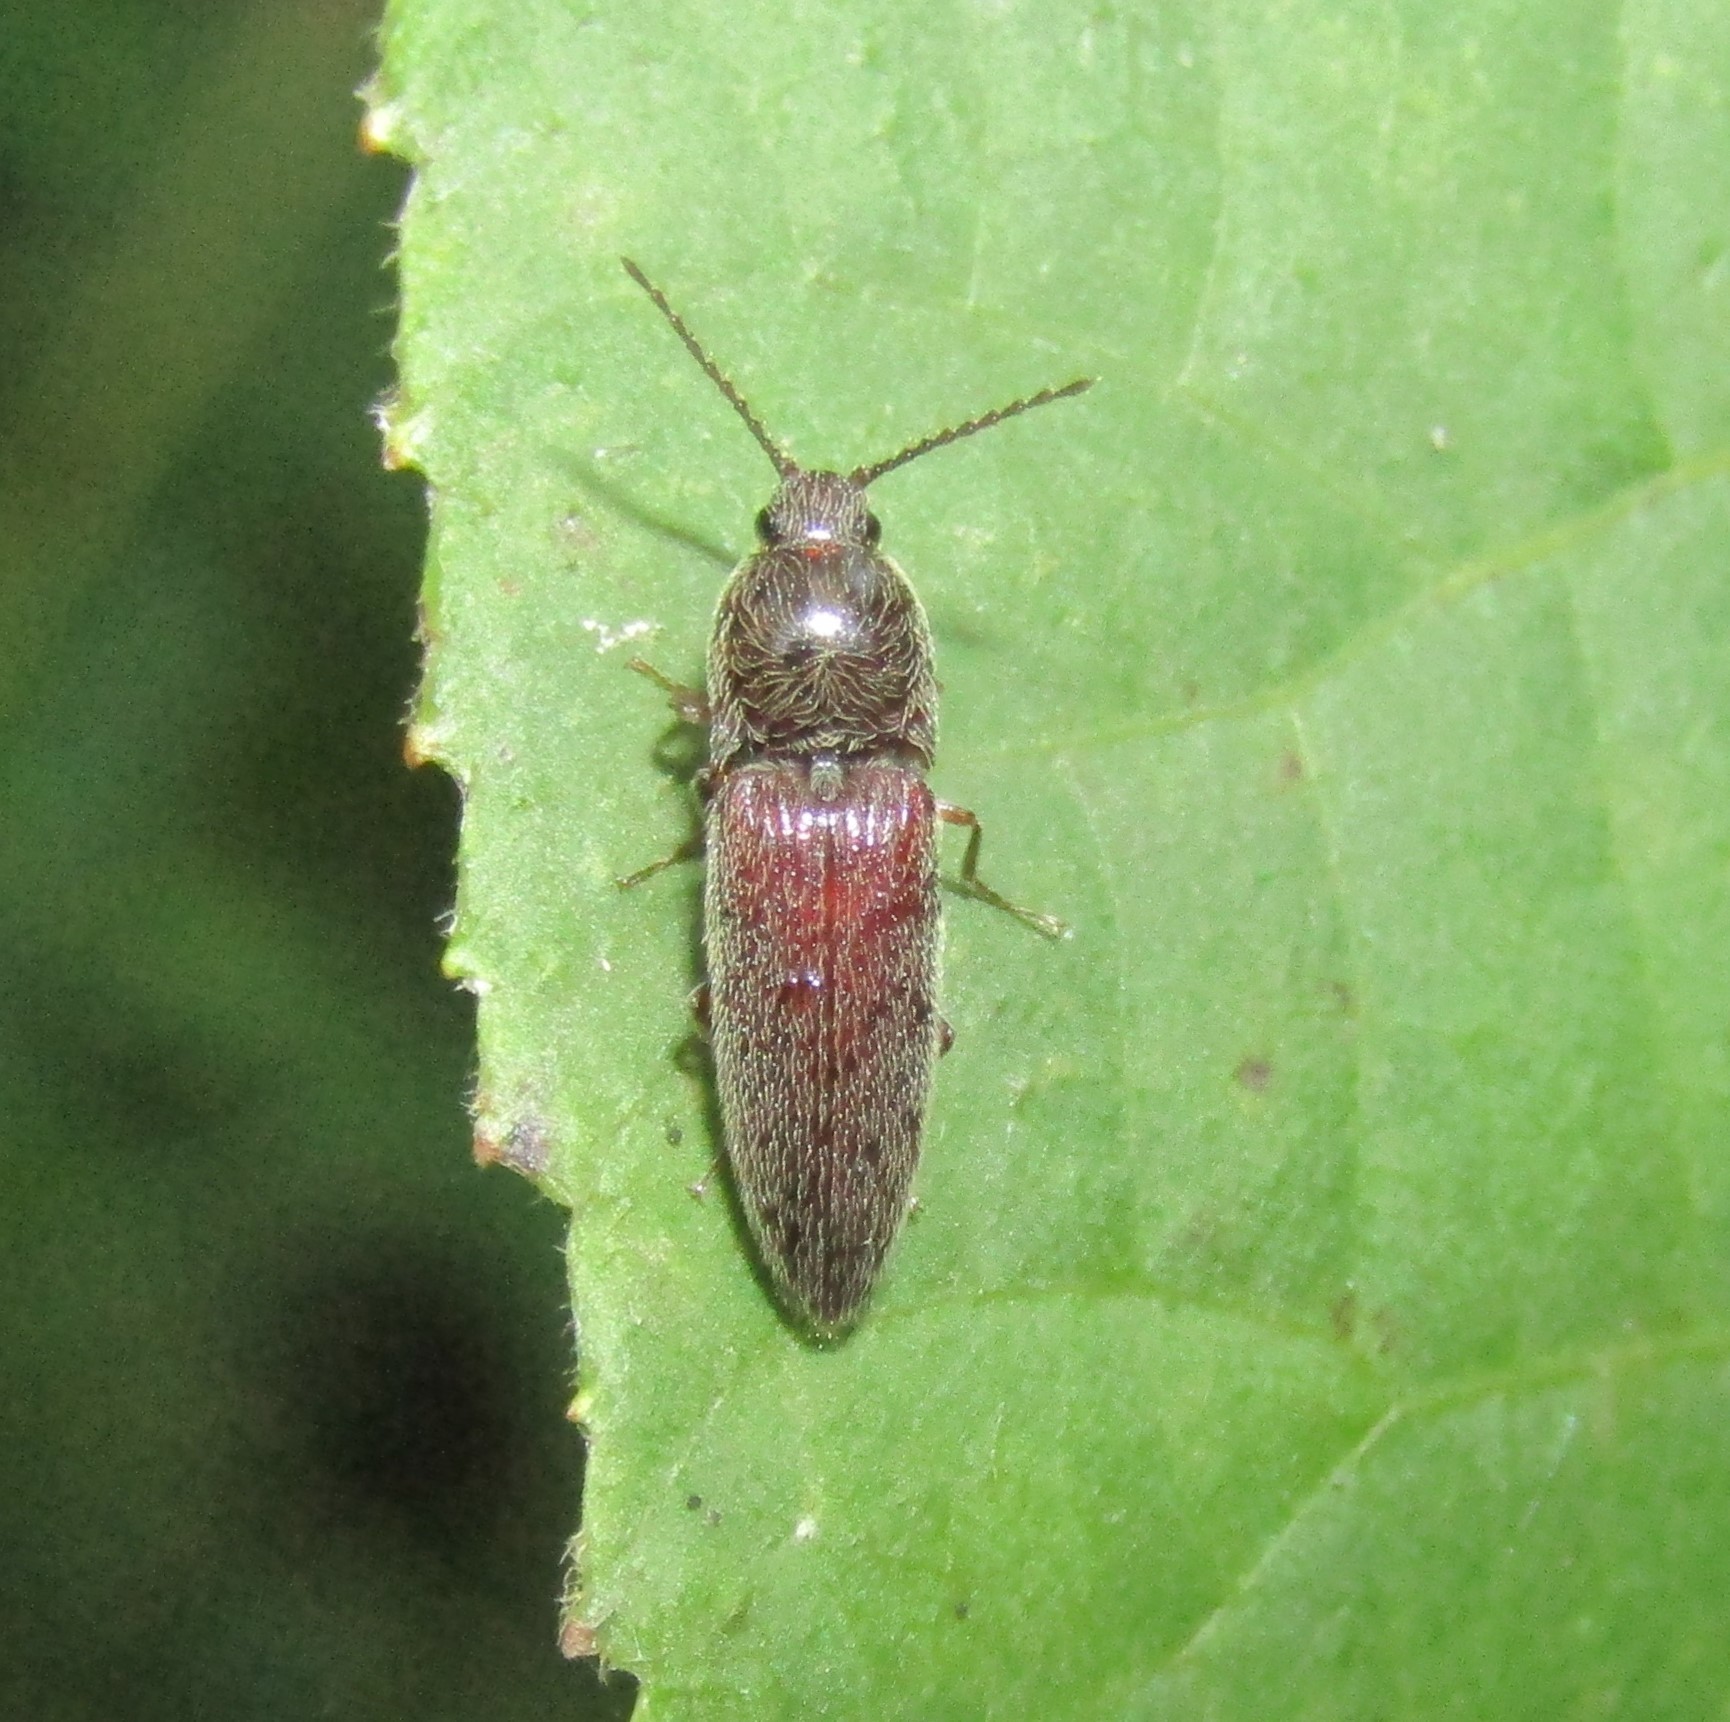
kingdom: Animalia
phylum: Arthropoda
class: Insecta
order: Coleoptera
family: Elateridae
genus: Melanotus
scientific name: Melanotus americanus
